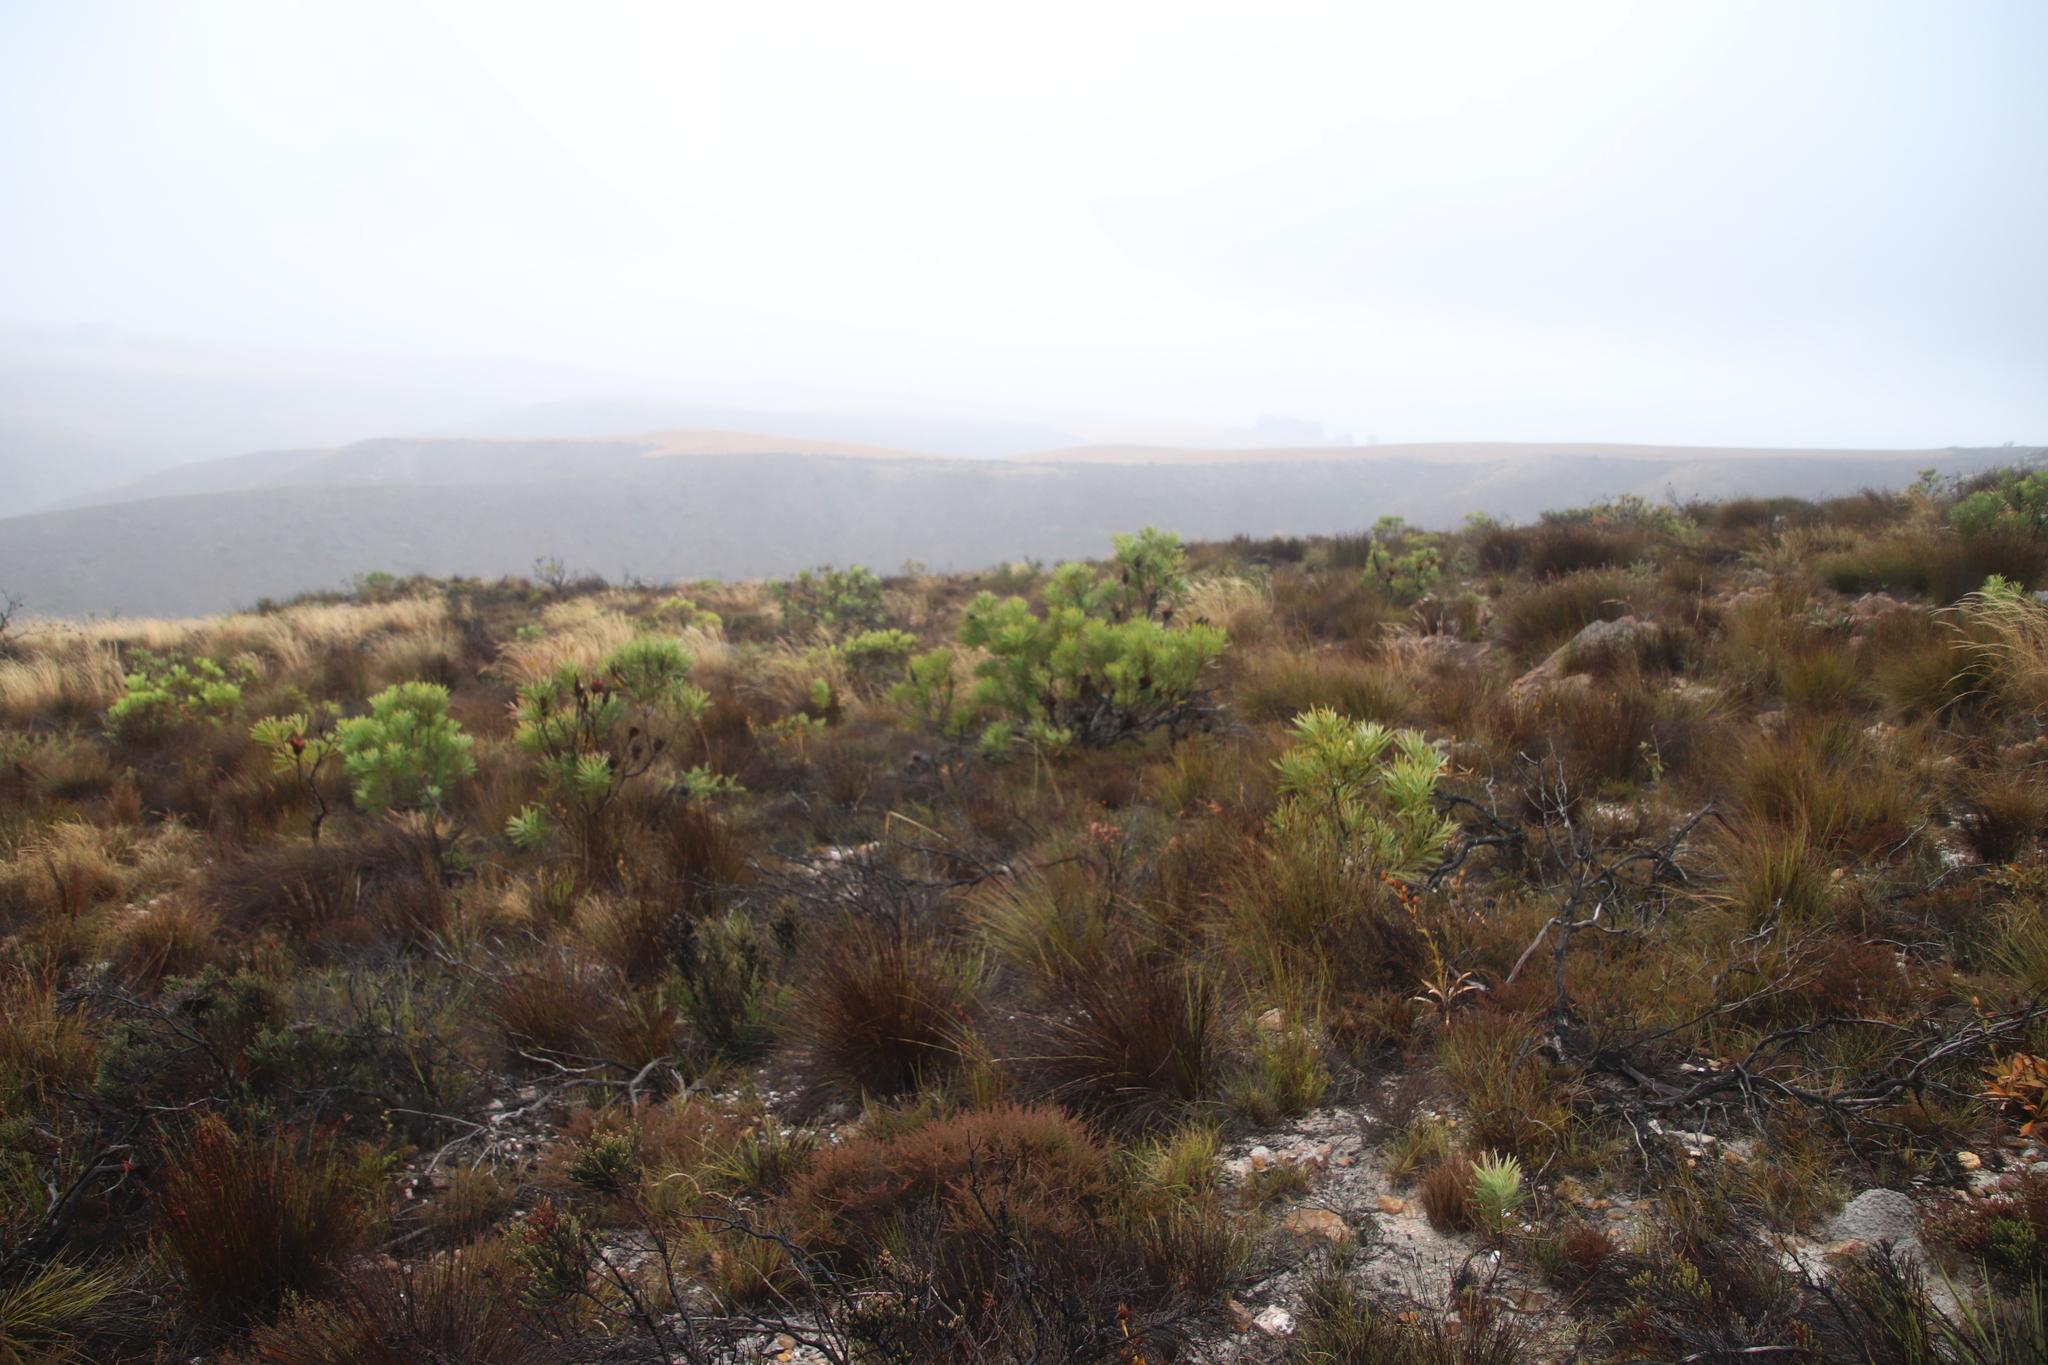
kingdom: Plantae
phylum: Tracheophyta
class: Liliopsida
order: Poales
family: Restionaceae
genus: Hypodiscus
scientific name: Hypodiscus argenteus
